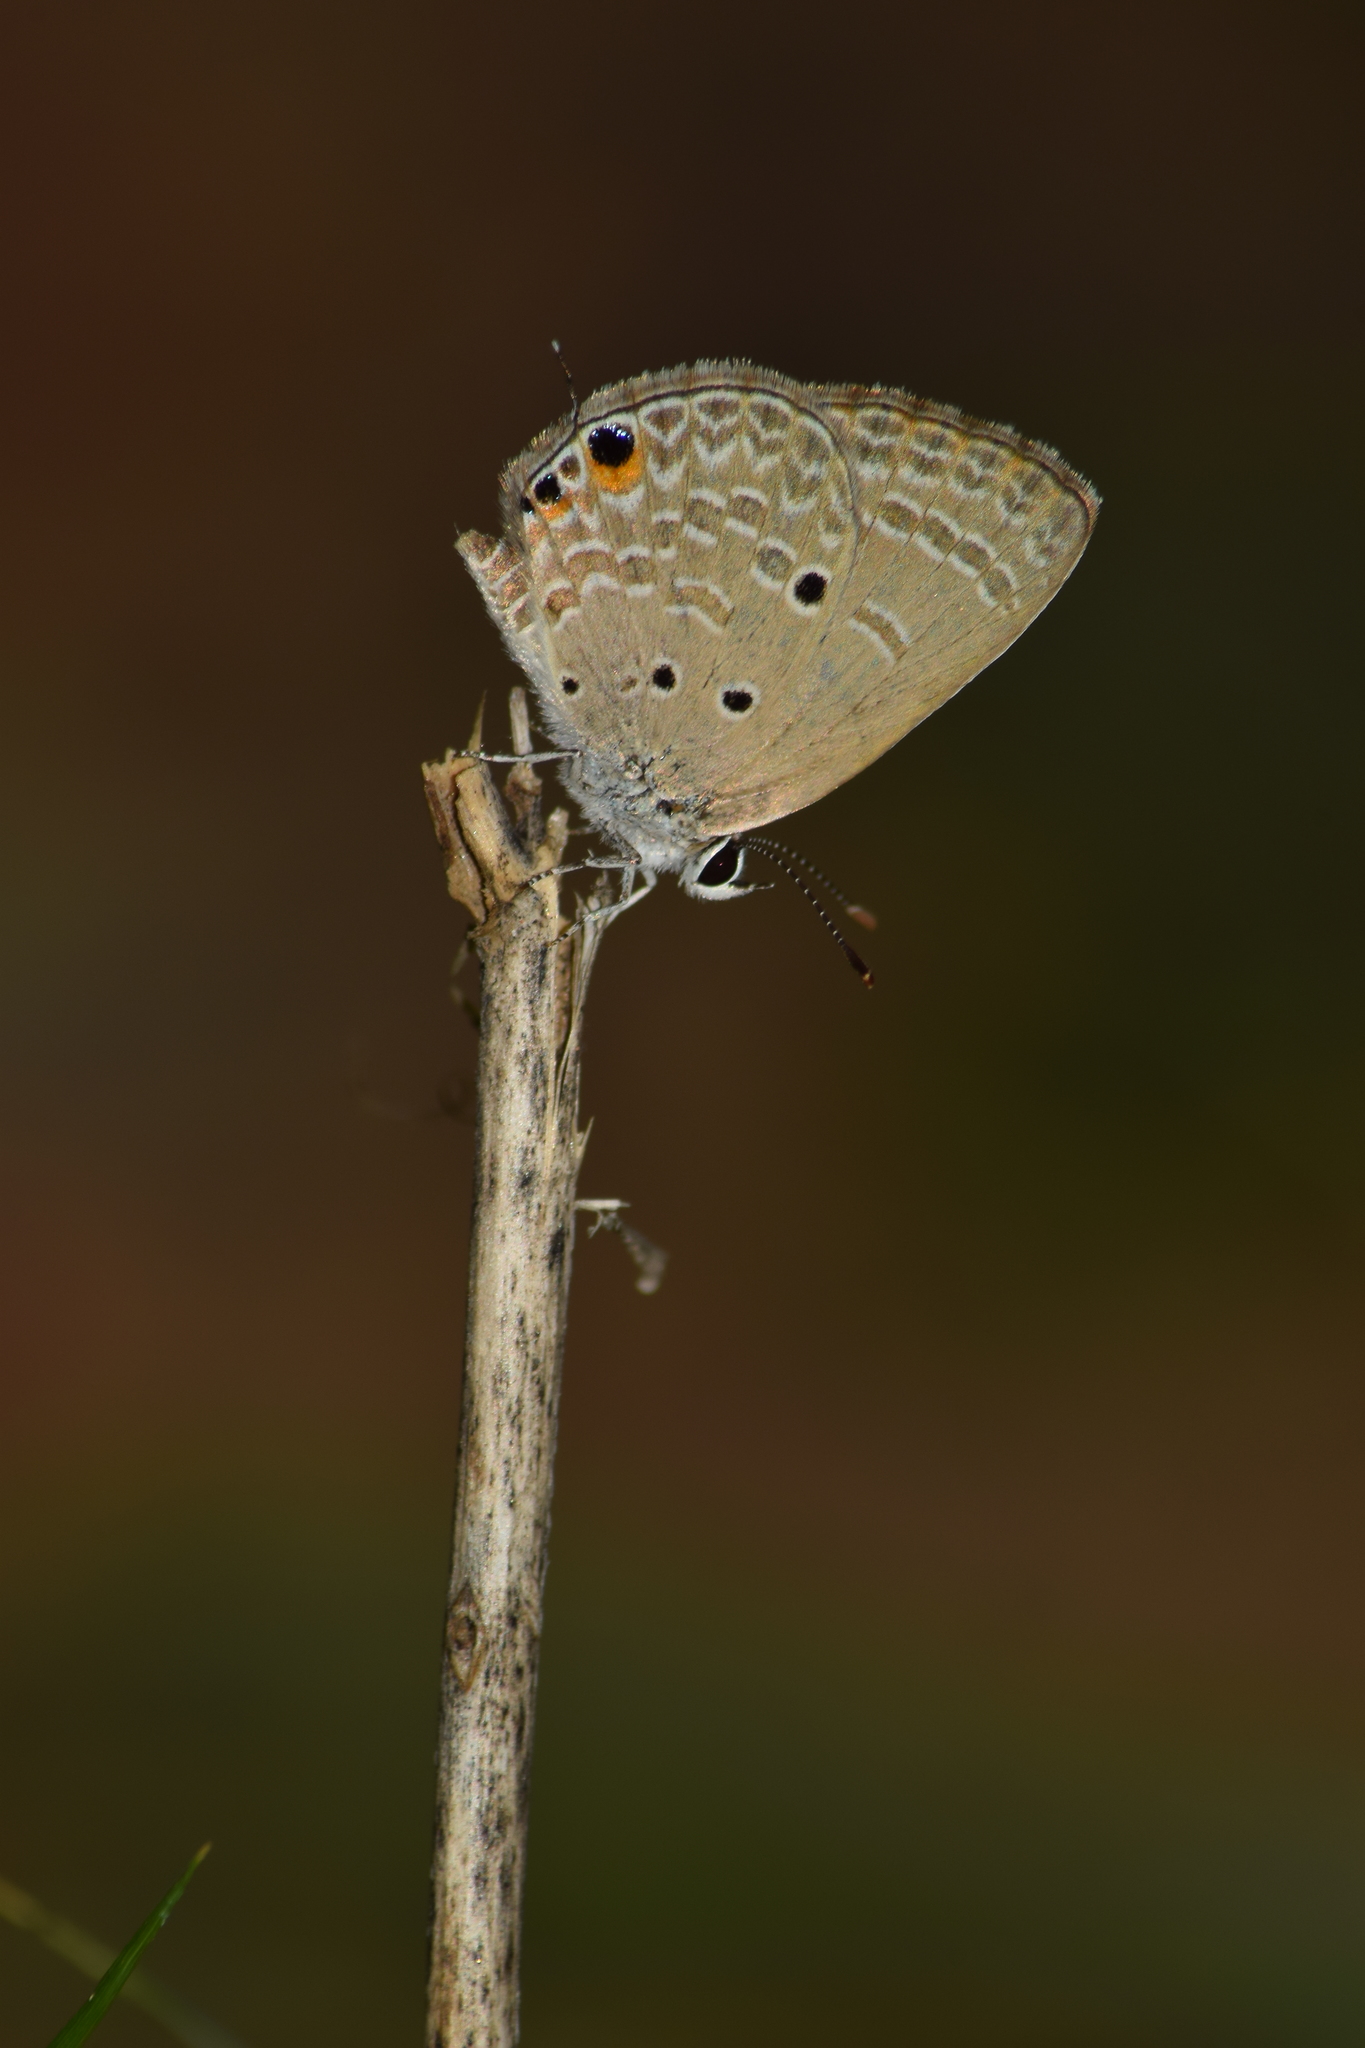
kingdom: Animalia
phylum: Arthropoda
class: Insecta
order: Lepidoptera
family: Lycaenidae
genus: Luthrodes
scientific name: Luthrodes pandava
